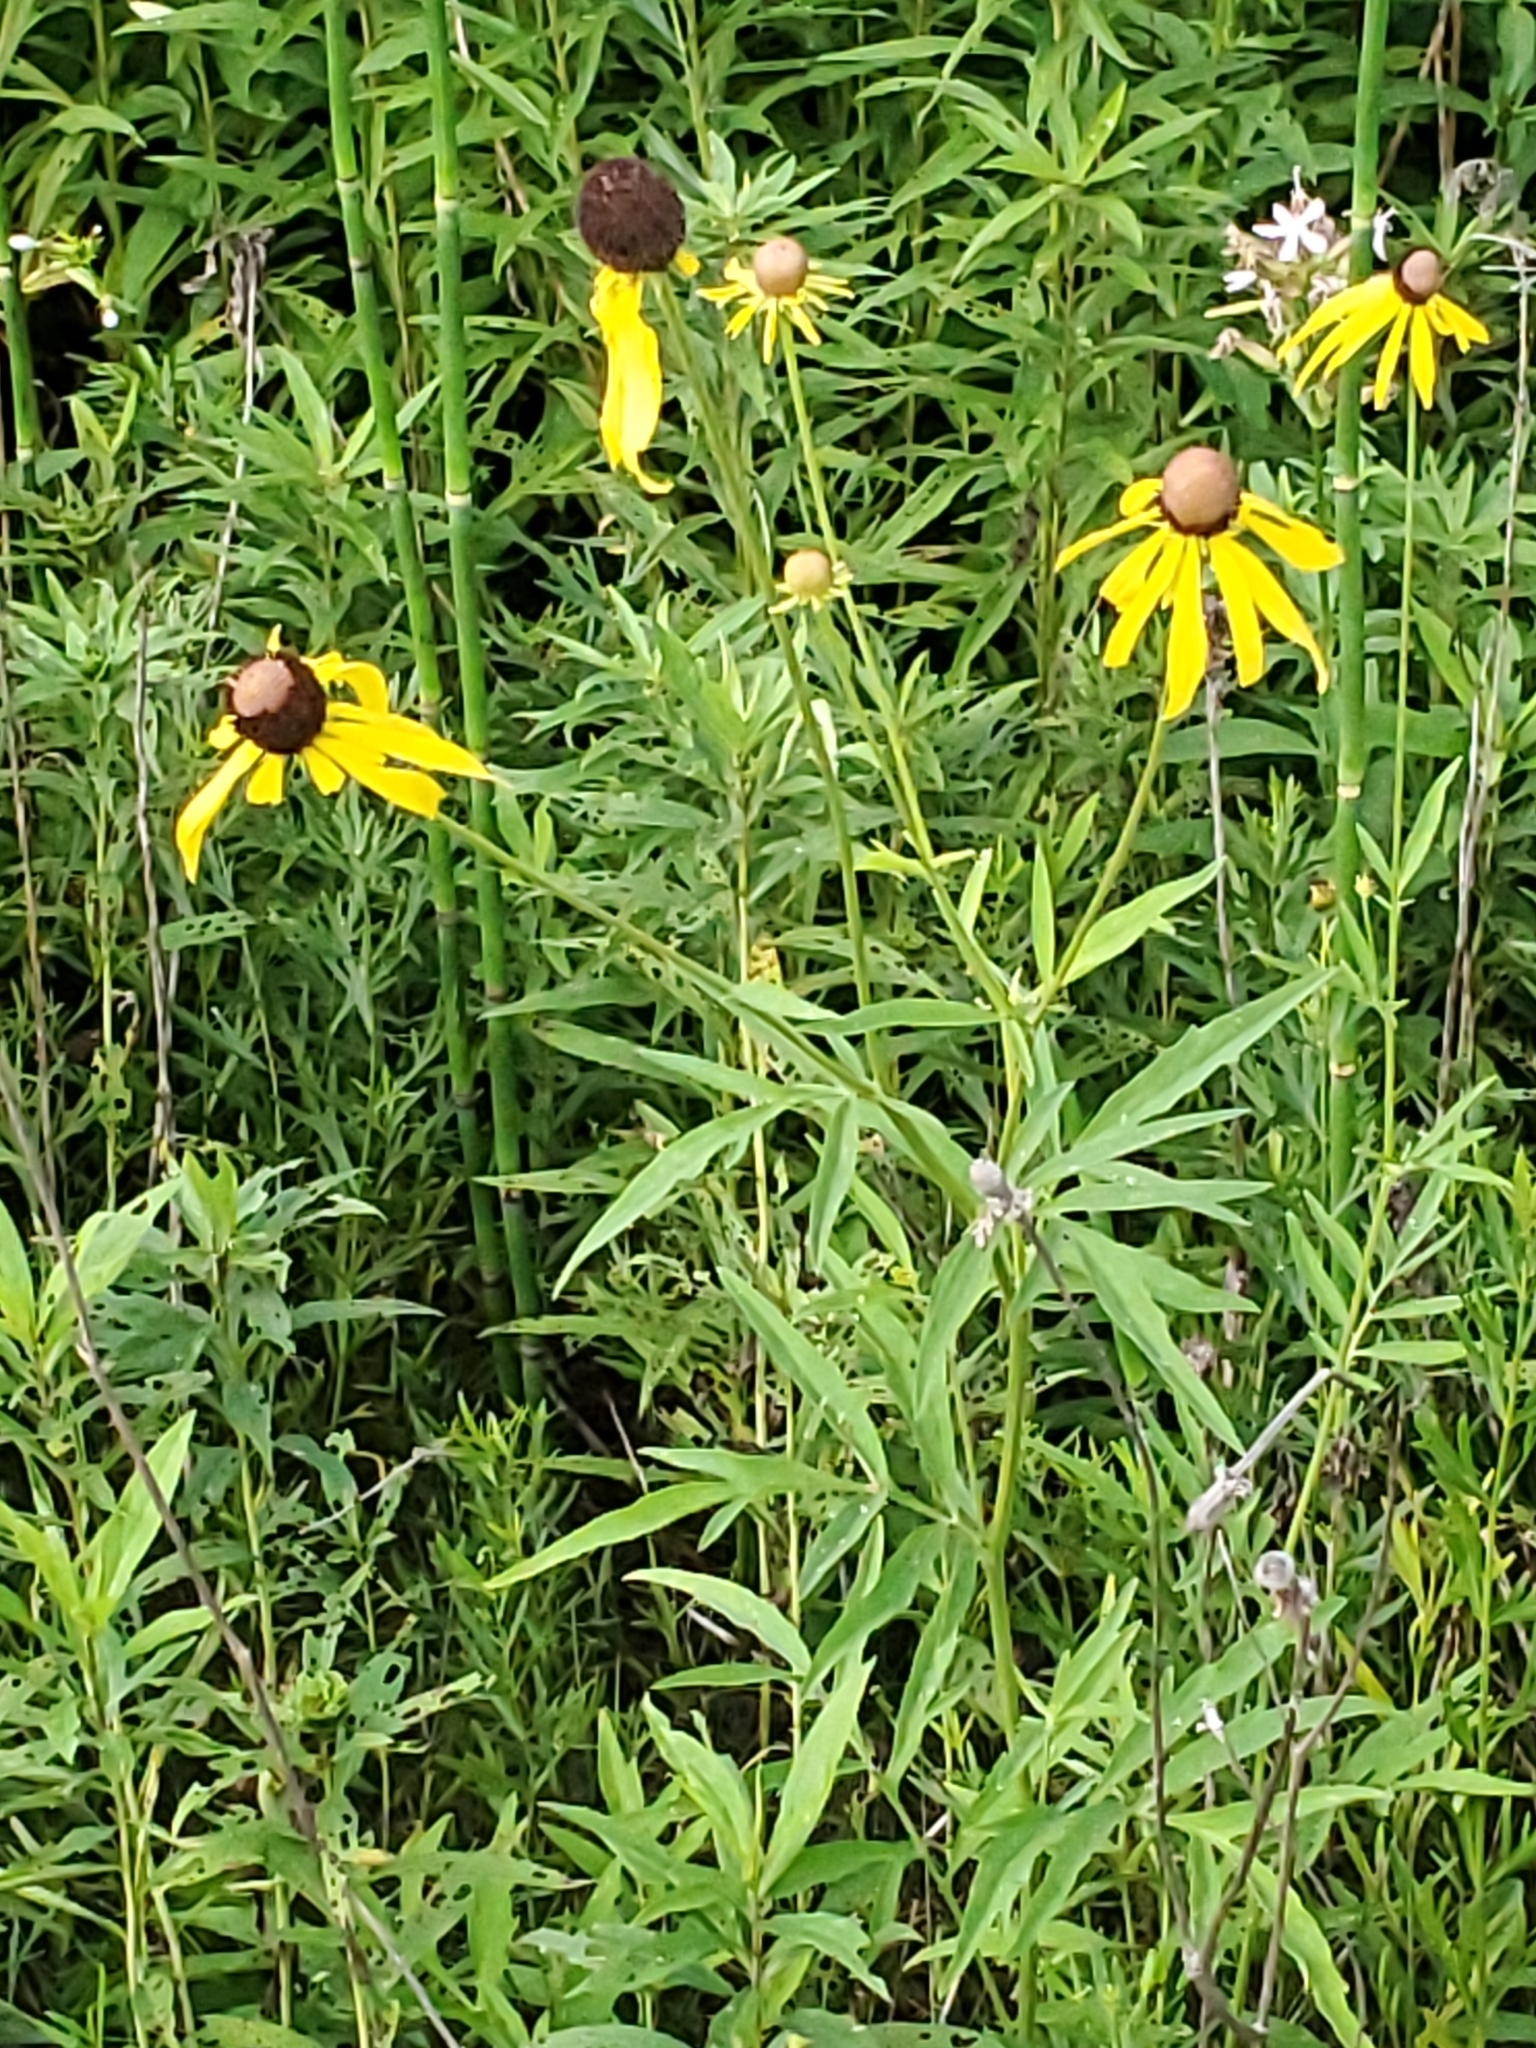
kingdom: Plantae
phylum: Tracheophyta
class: Magnoliopsida
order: Asterales
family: Asteraceae
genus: Ratibida
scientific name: Ratibida pinnata
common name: Drooping prairie-coneflower
